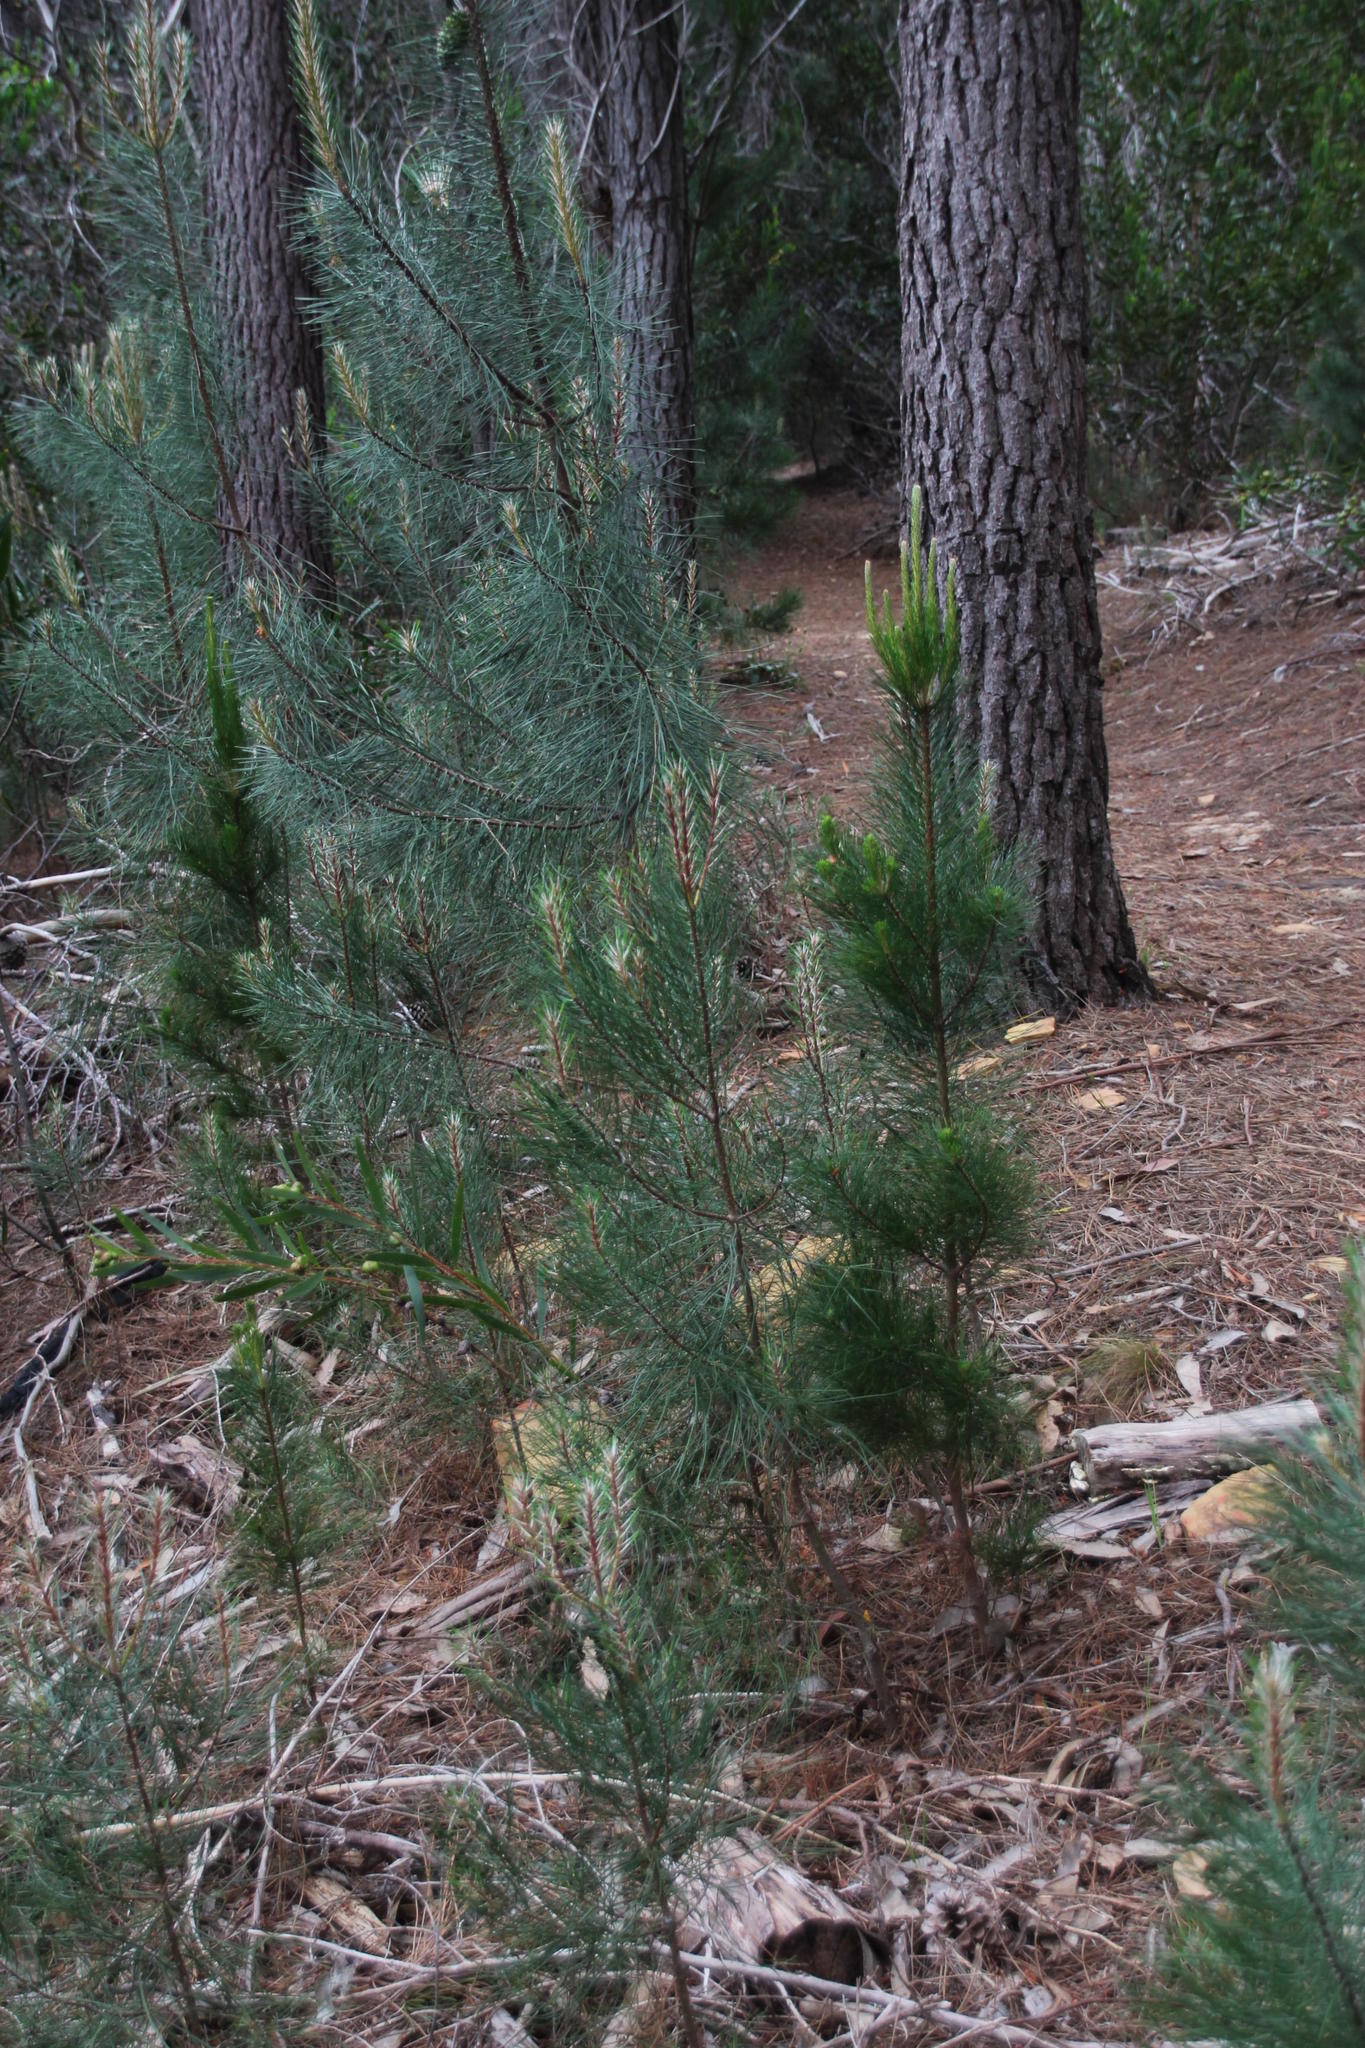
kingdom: Plantae
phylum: Tracheophyta
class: Pinopsida
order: Pinales
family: Pinaceae
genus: Pinus
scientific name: Pinus radiata
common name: Monterey pine
